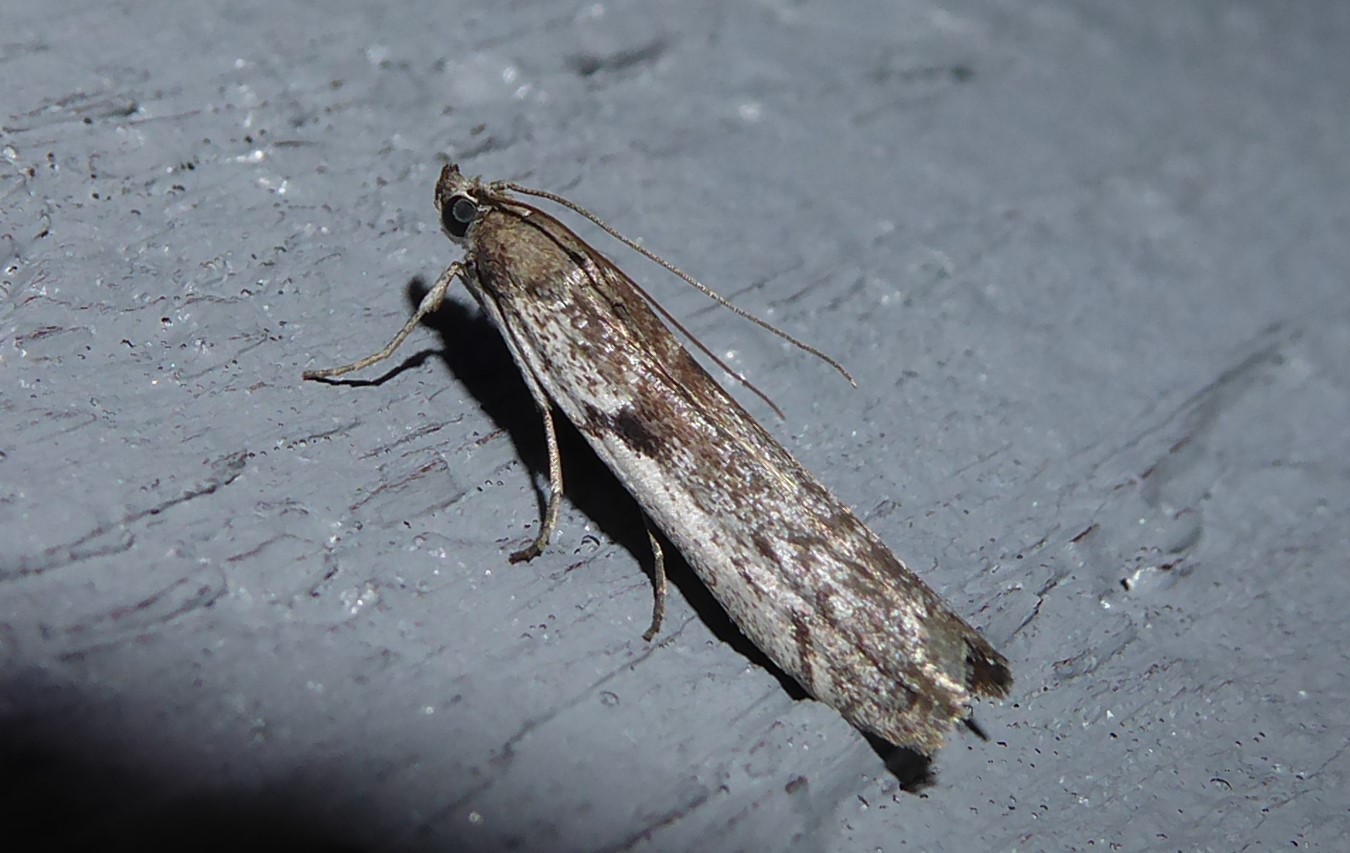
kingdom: Animalia
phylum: Arthropoda
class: Insecta
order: Lepidoptera
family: Pyralidae
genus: Patagoniodes
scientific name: Patagoniodes farinaria
